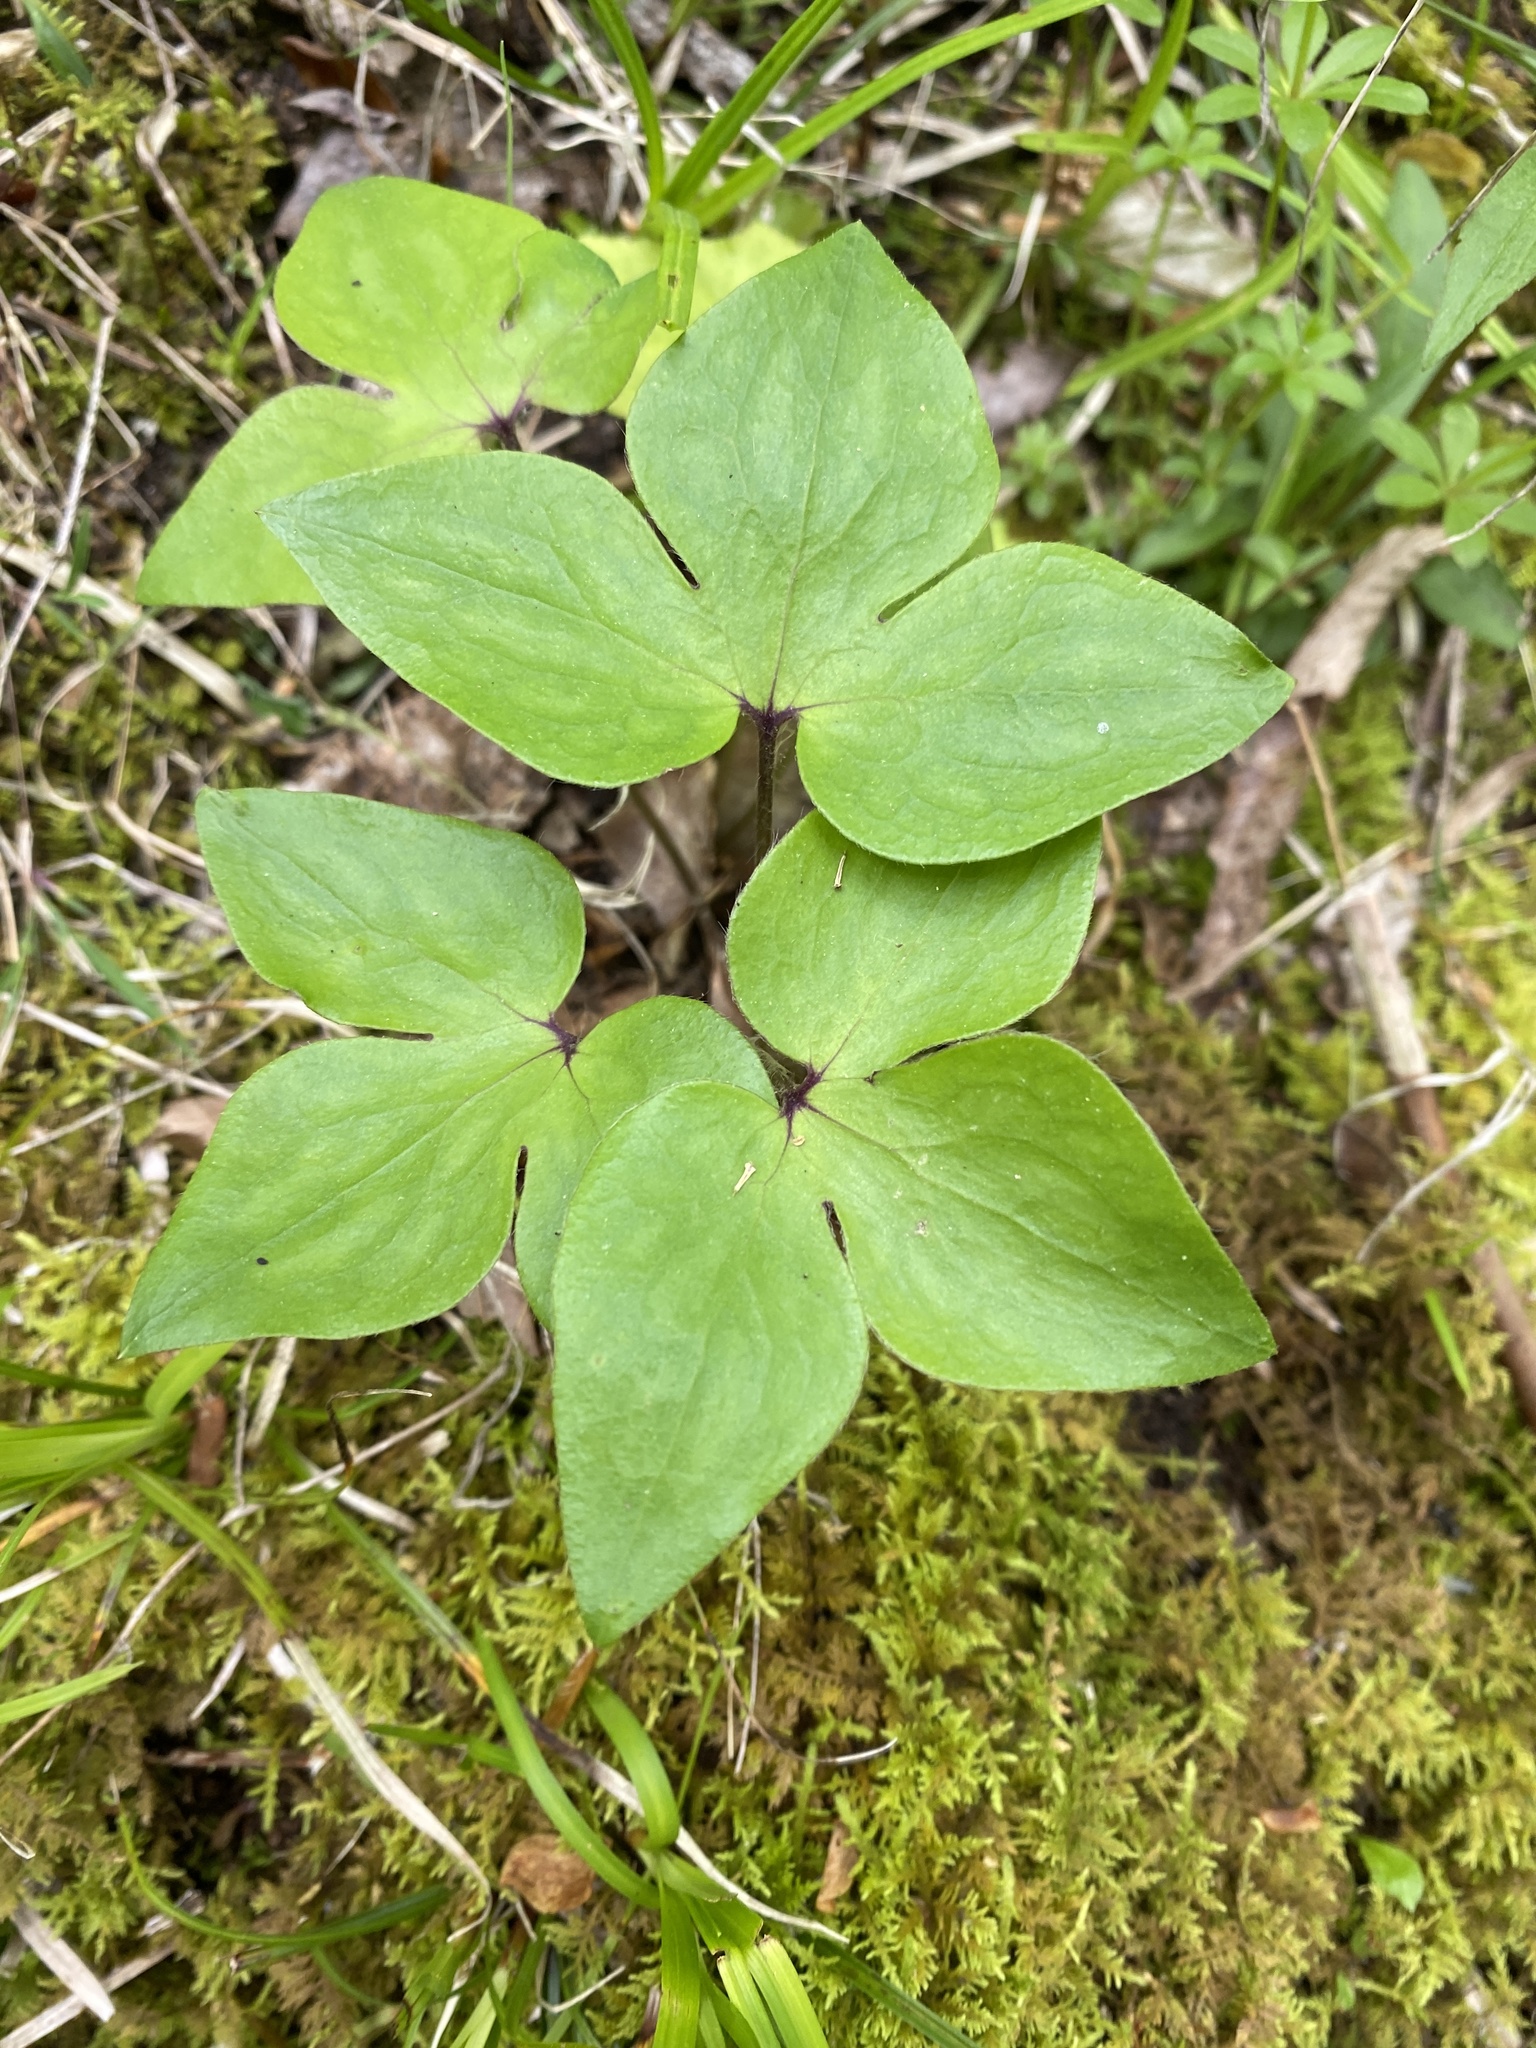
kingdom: Plantae
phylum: Tracheophyta
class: Magnoliopsida
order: Ranunculales
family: Ranunculaceae
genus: Hepatica
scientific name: Hepatica acutiloba
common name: Sharp-lobed hepatica
